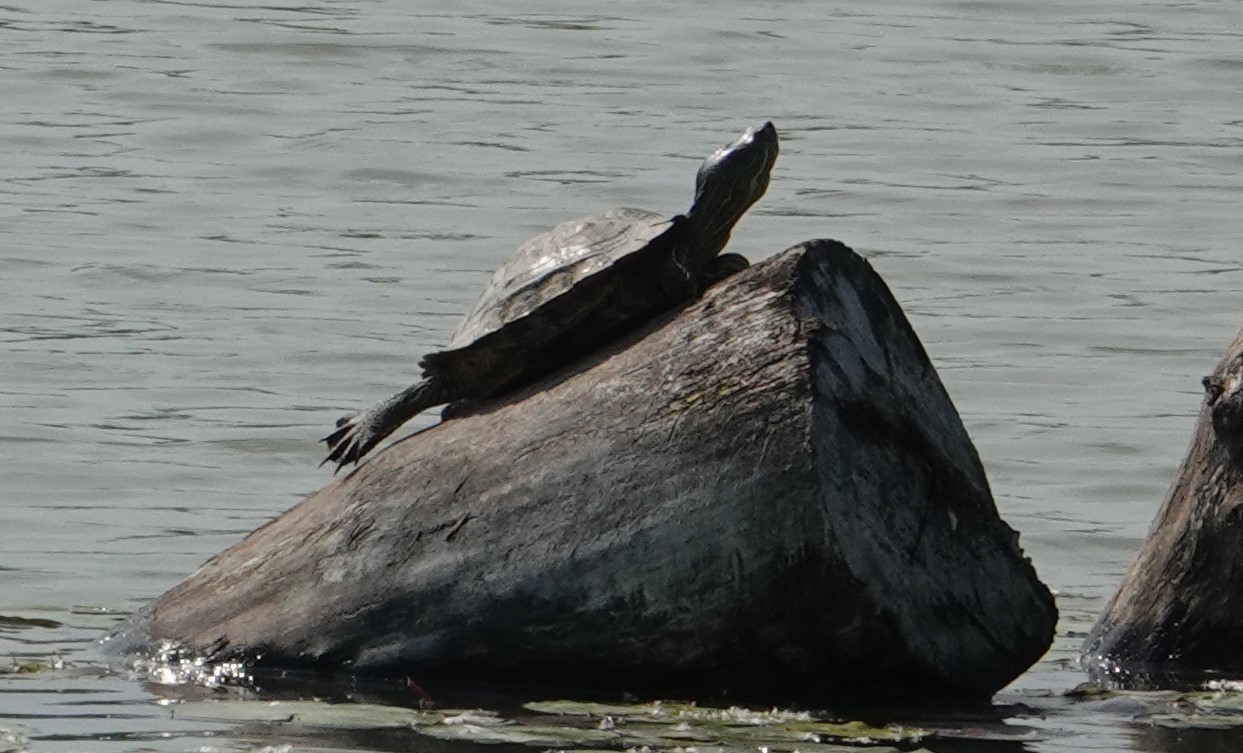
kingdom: Animalia
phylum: Chordata
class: Testudines
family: Emydidae
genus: Trachemys
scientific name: Trachemys scripta
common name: Slider
